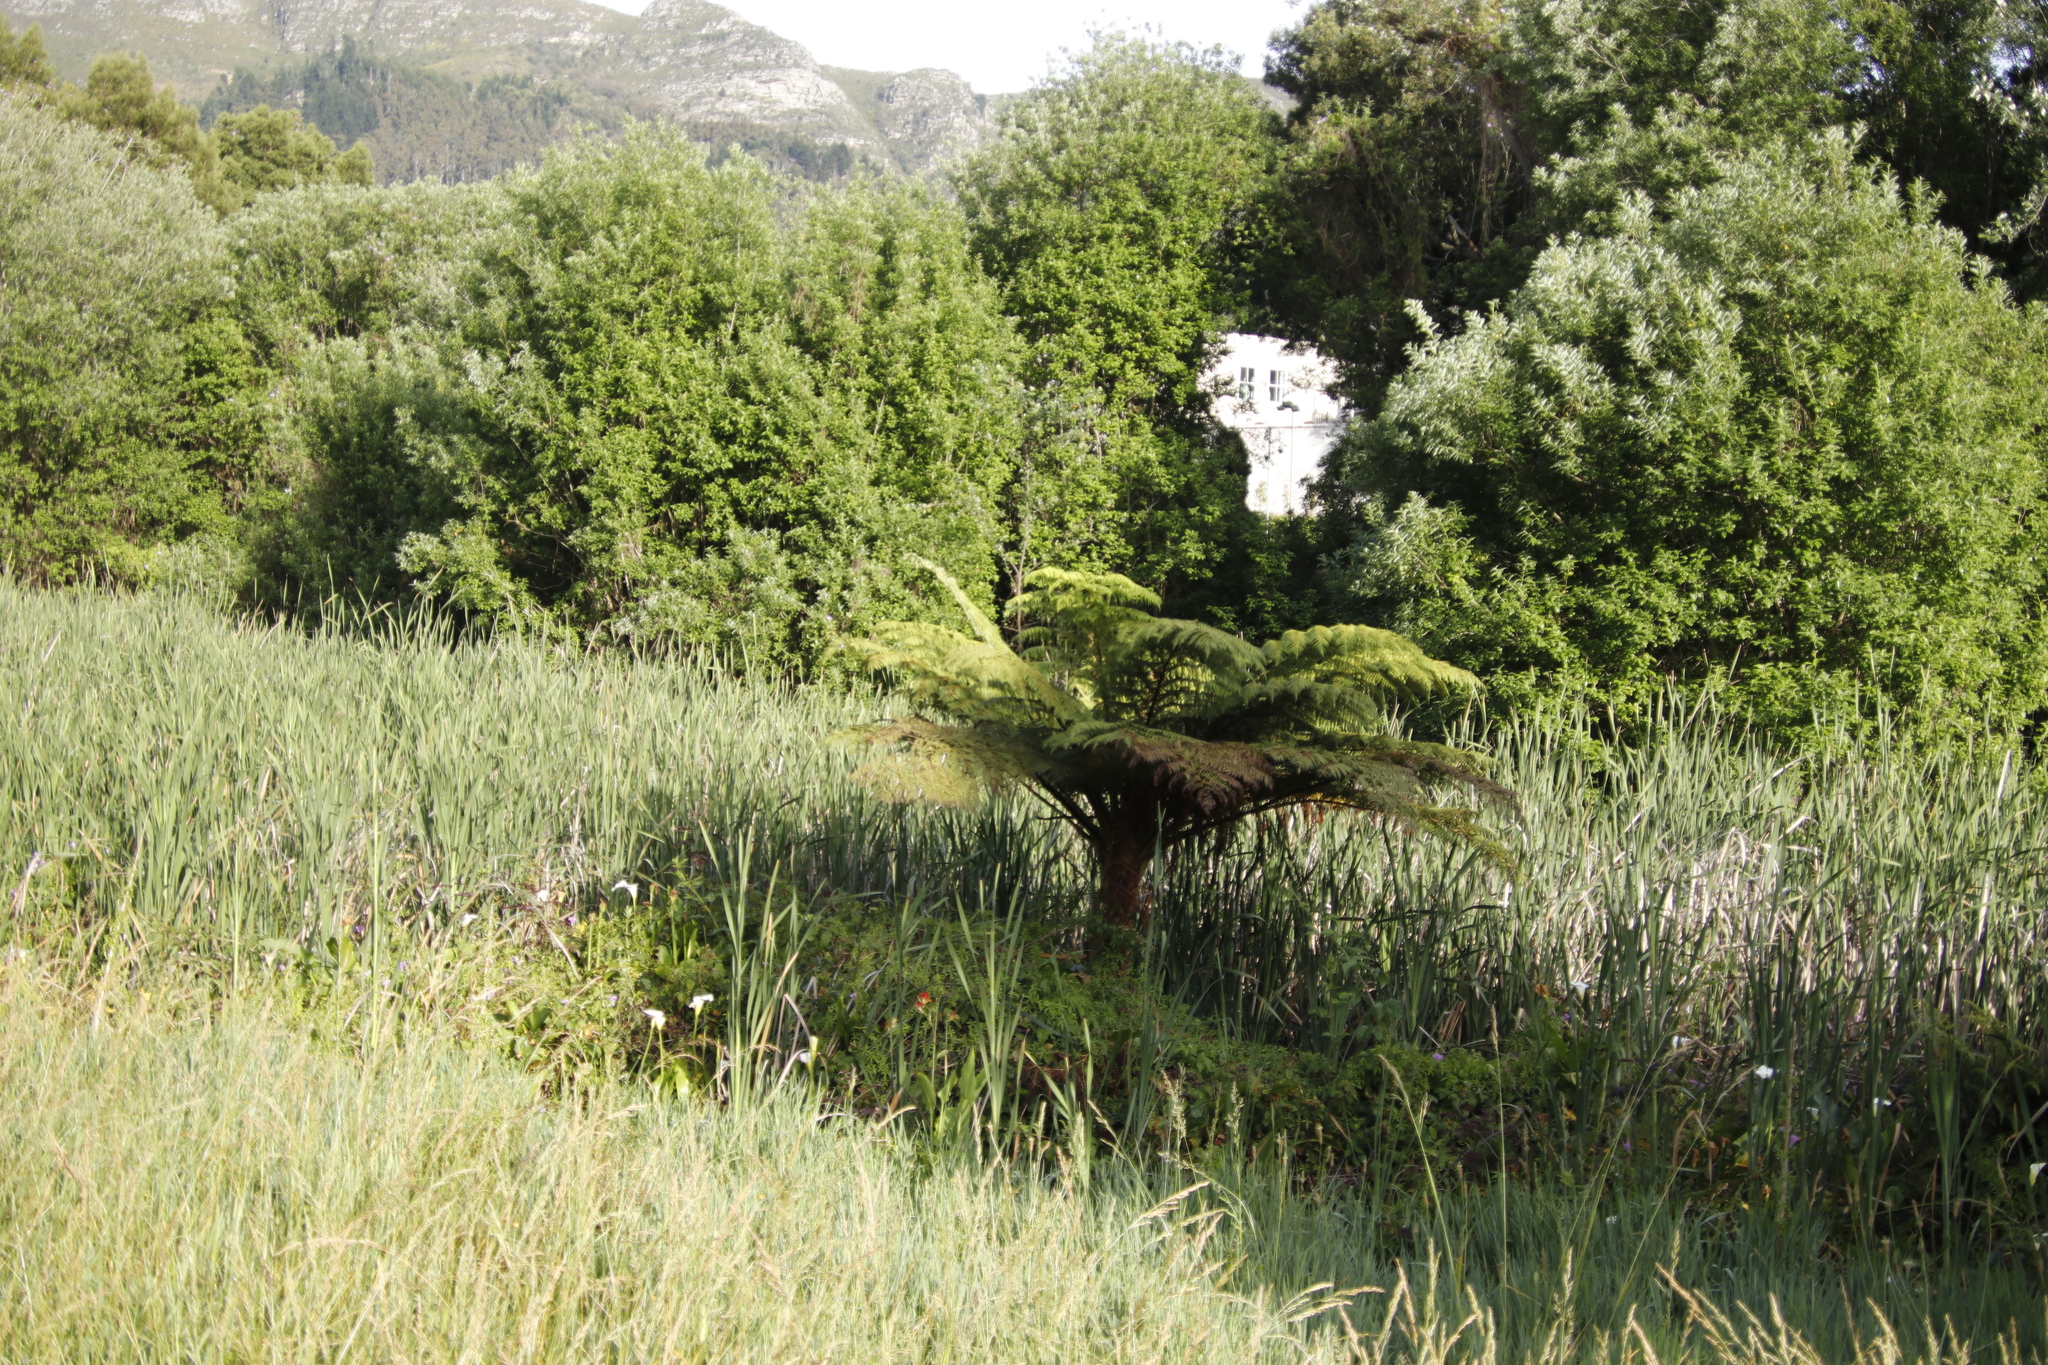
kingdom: Plantae
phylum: Tracheophyta
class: Polypodiopsida
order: Cyatheales
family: Cyatheaceae
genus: Sphaeropteris
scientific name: Sphaeropteris cooperi
